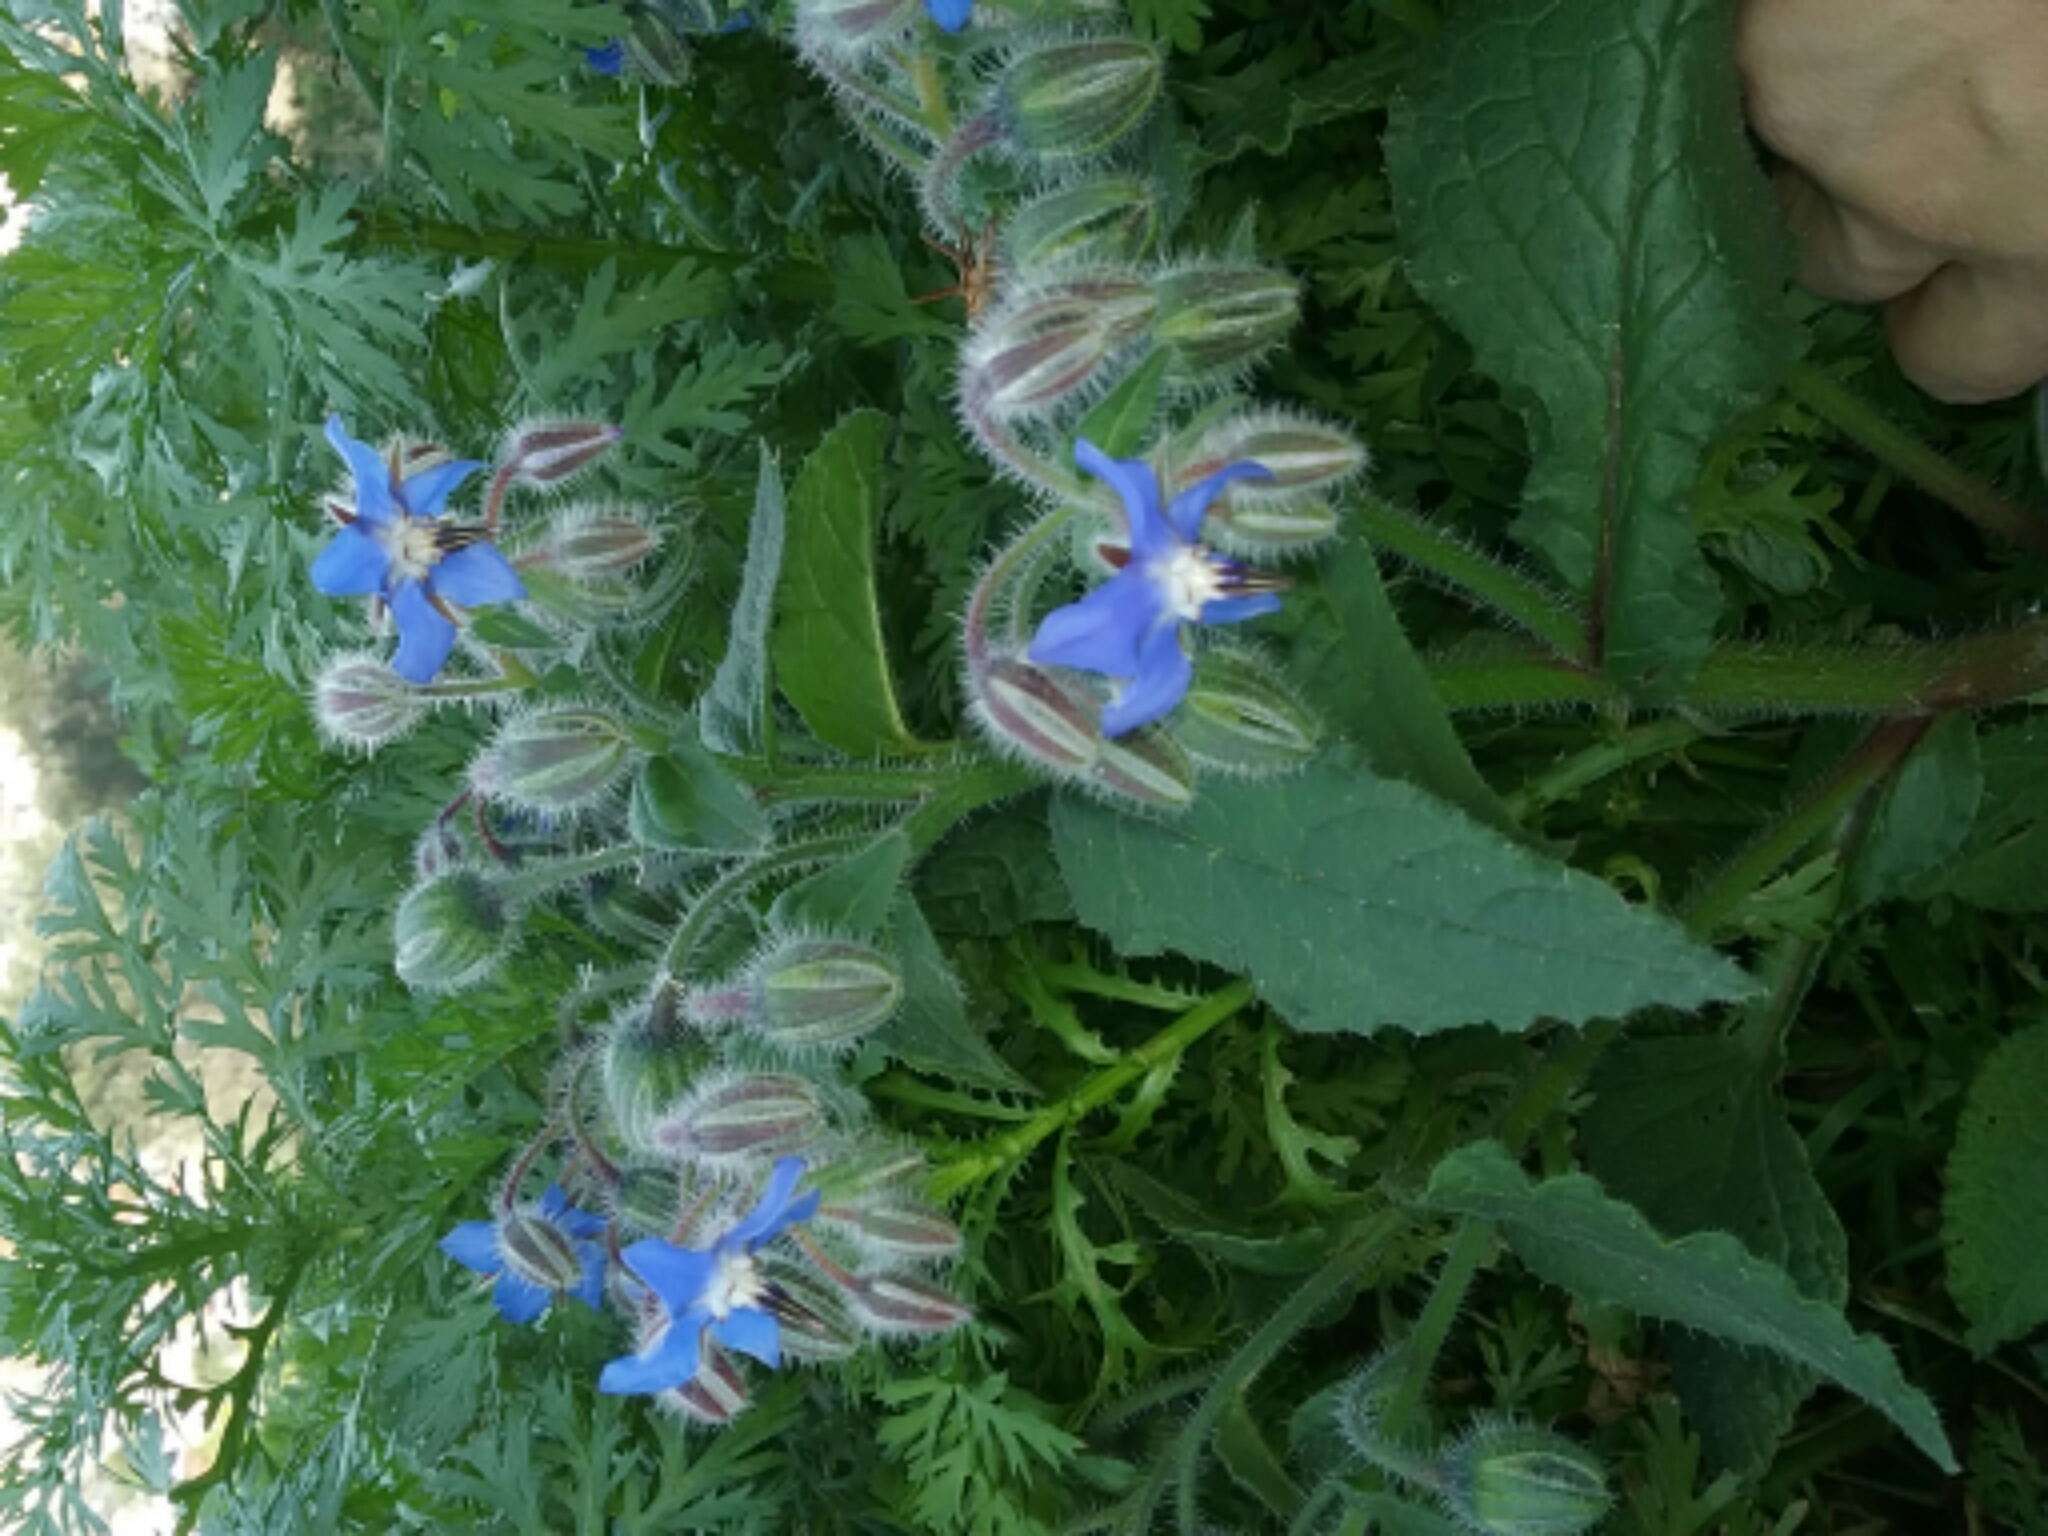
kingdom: Plantae
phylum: Tracheophyta
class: Magnoliopsida
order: Boraginales
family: Boraginaceae
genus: Borago
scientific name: Borago officinalis
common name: Borage
